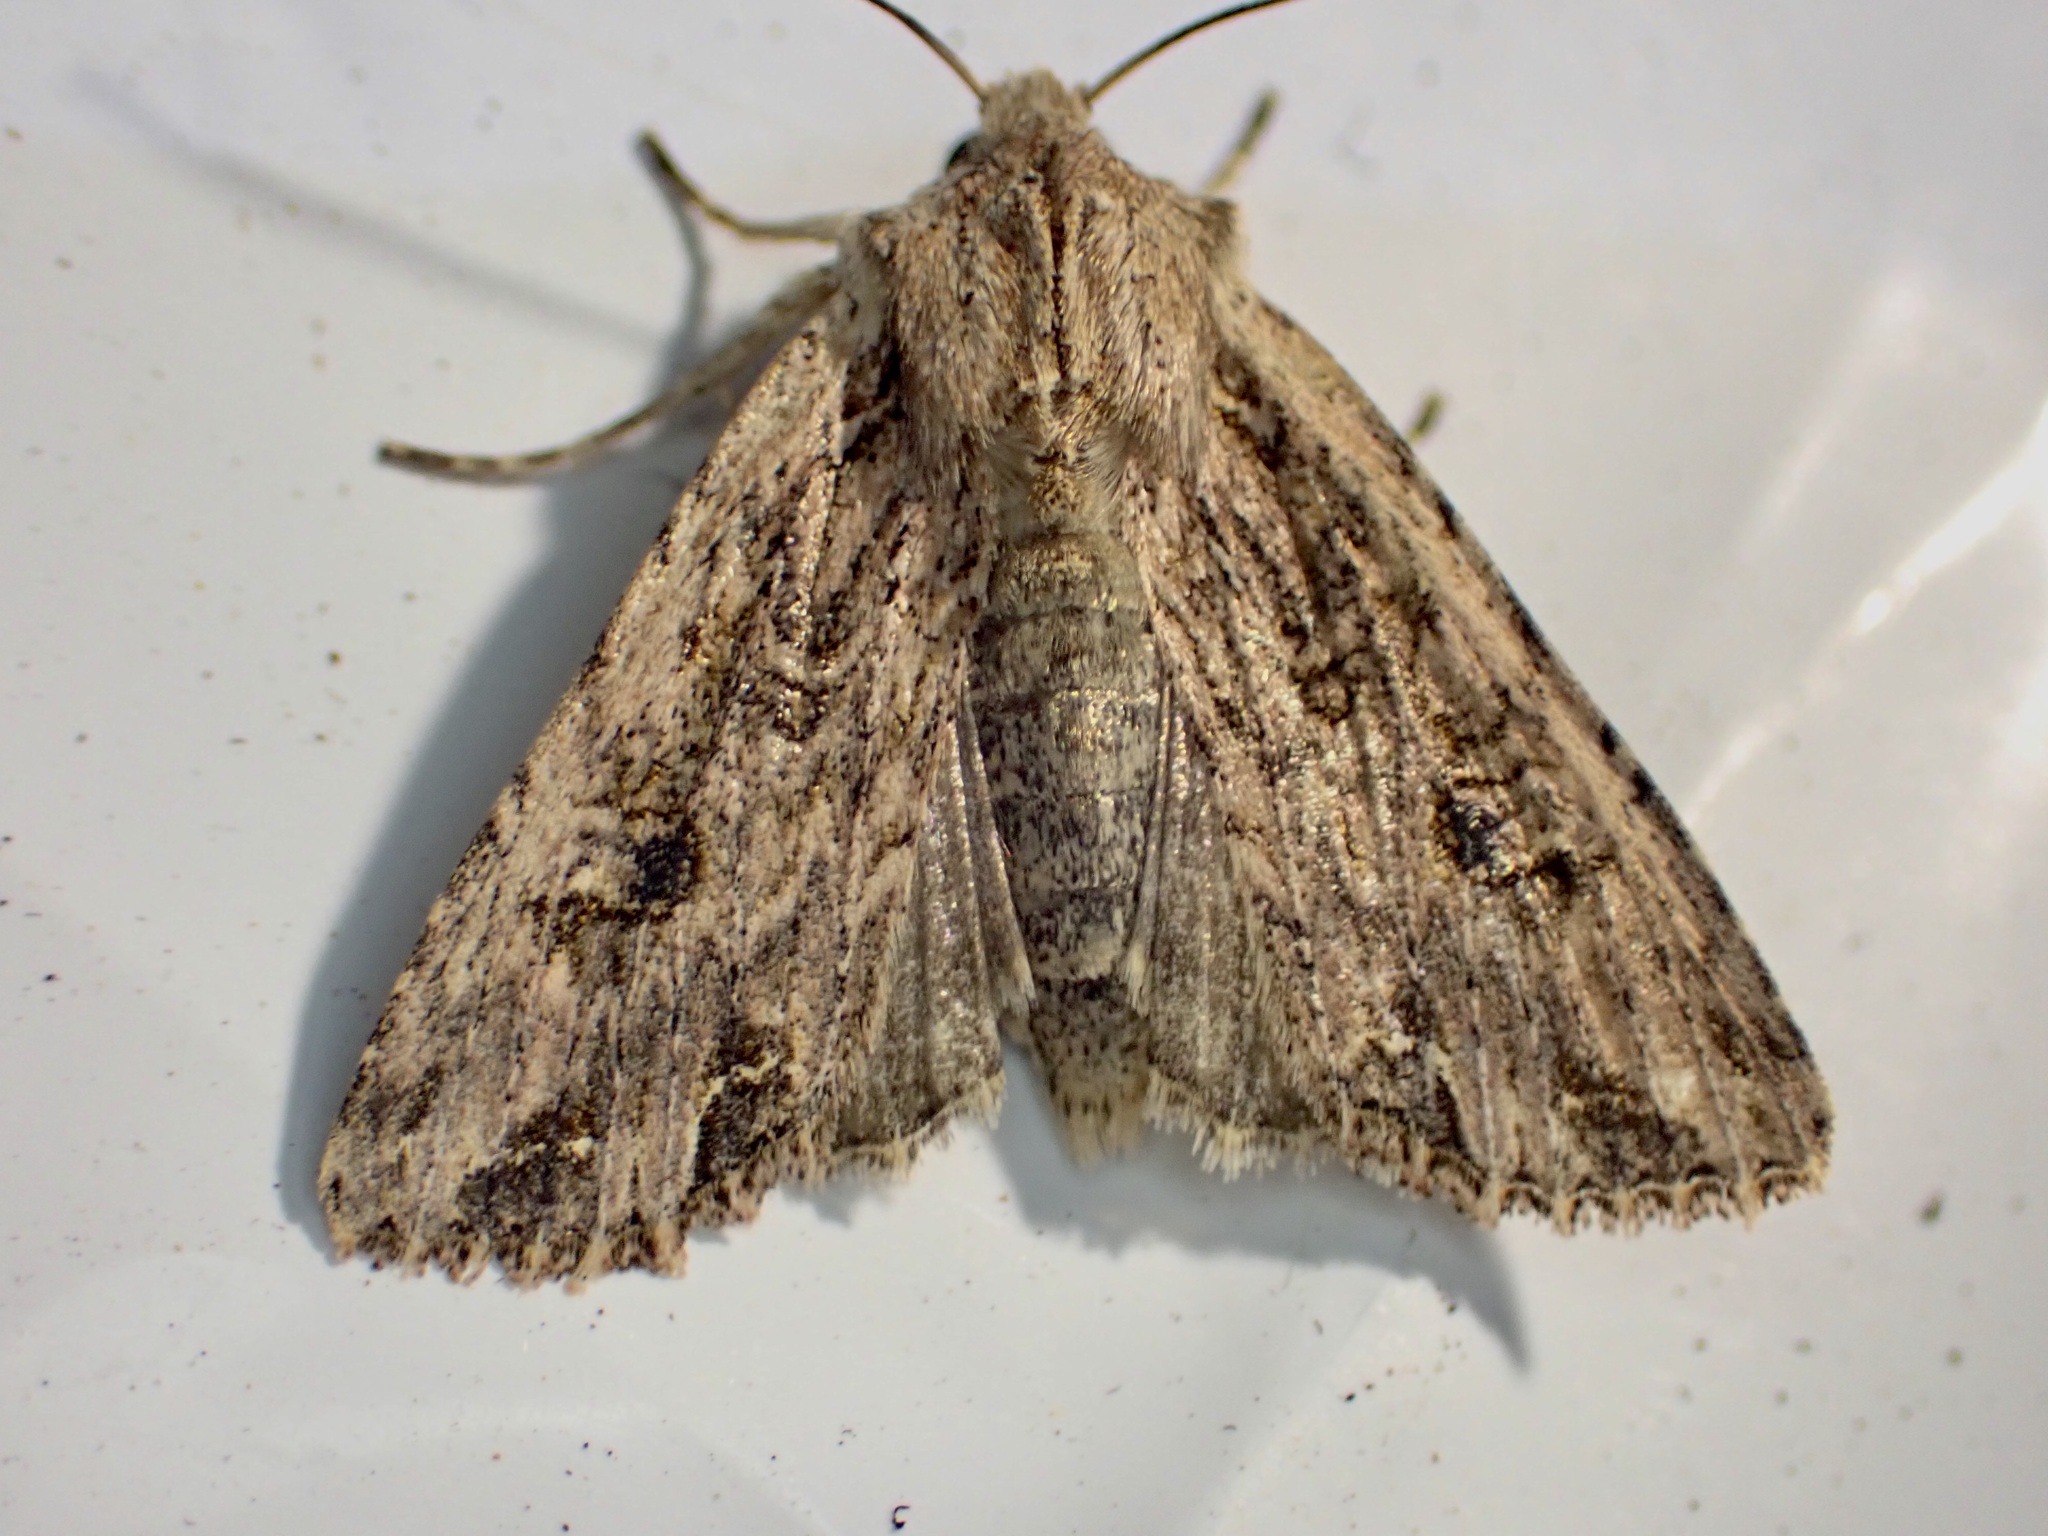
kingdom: Animalia
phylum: Arthropoda
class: Insecta
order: Lepidoptera
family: Noctuidae
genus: Ichneutica
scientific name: Ichneutica lignana
